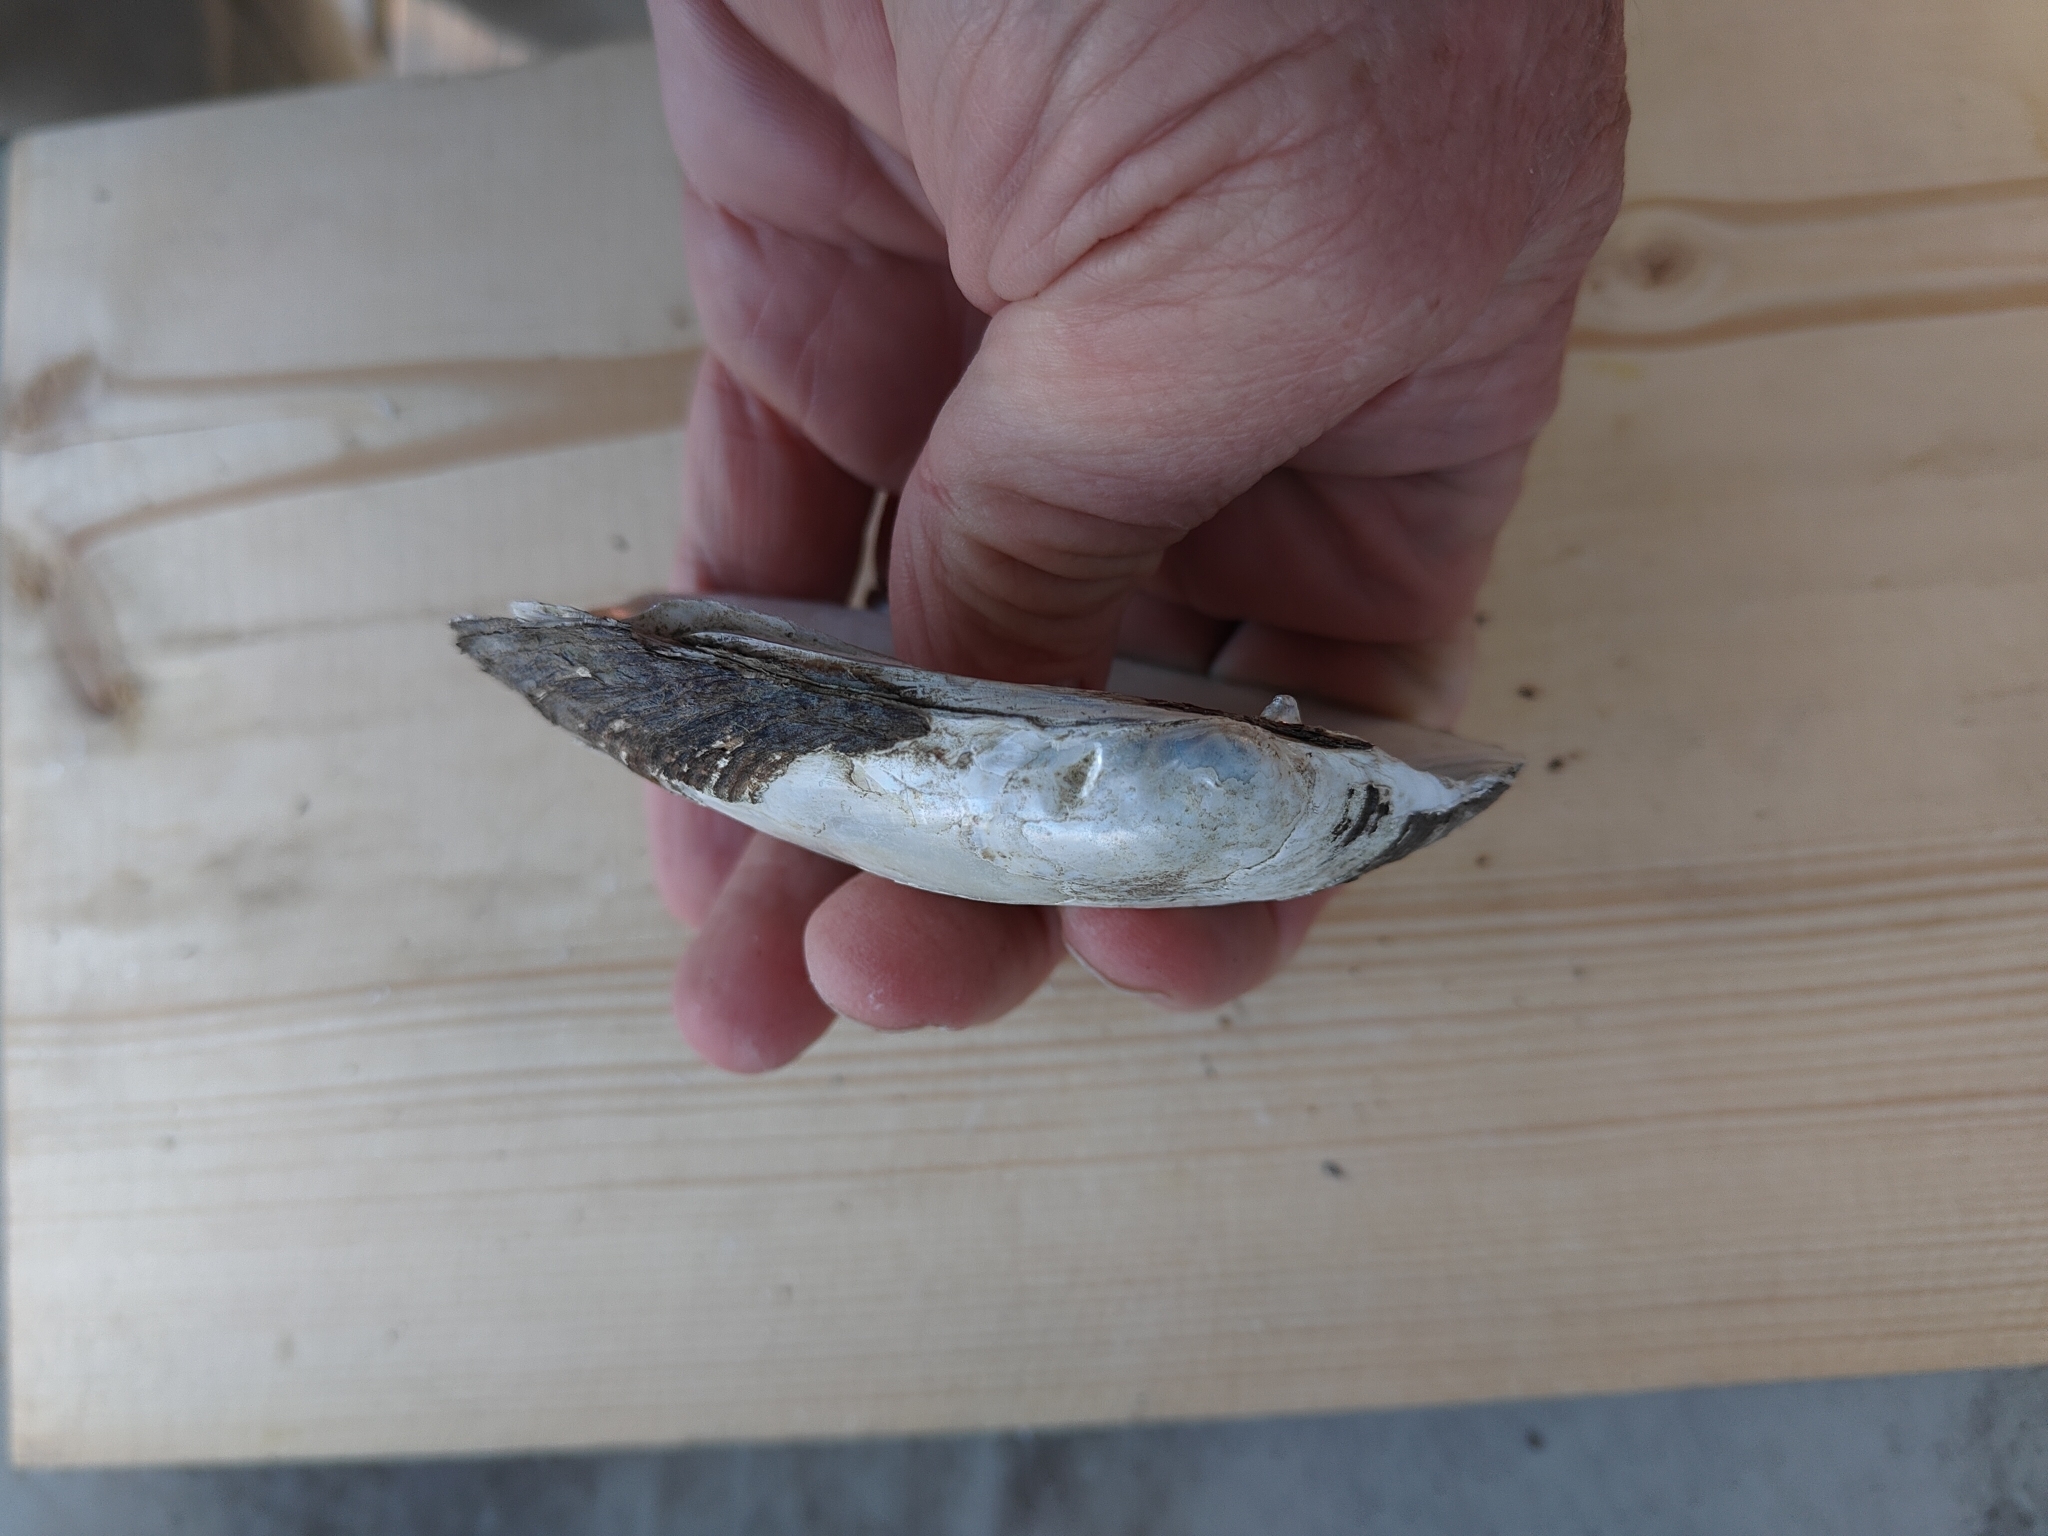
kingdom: Animalia
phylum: Mollusca
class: Bivalvia
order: Unionida
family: Unionidae
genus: Lampsilis
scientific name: Lampsilis siliquoidea
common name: Fatmucket
